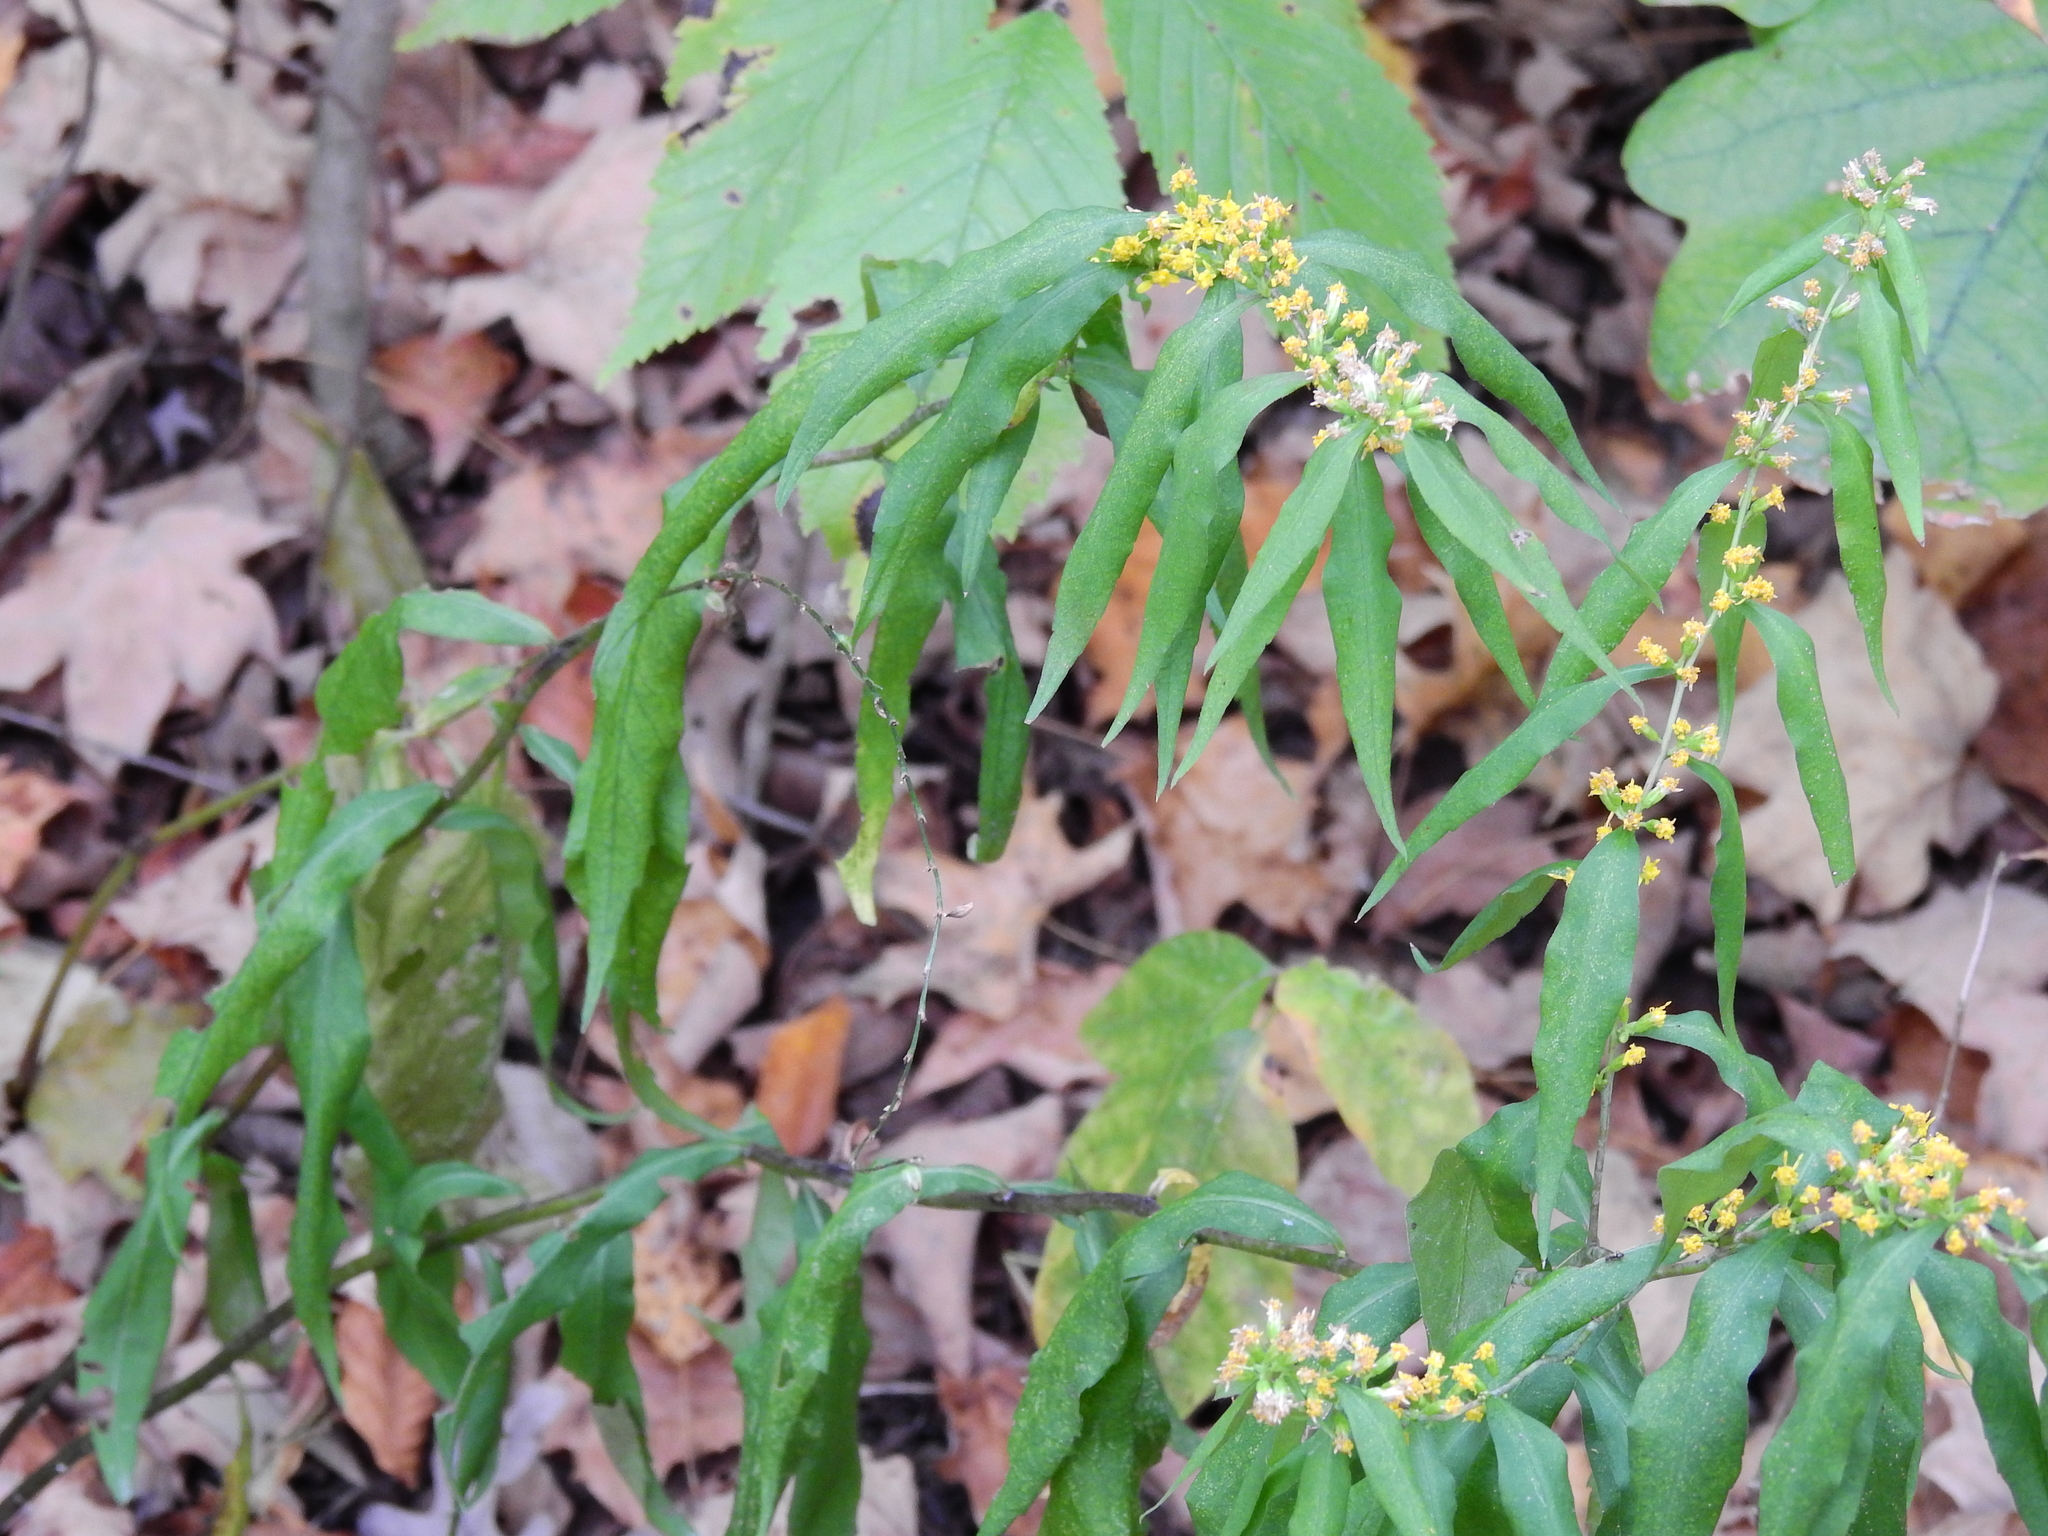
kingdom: Plantae
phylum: Tracheophyta
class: Magnoliopsida
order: Asterales
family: Asteraceae
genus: Solidago
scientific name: Solidago caesia
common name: Woodland goldenrod
